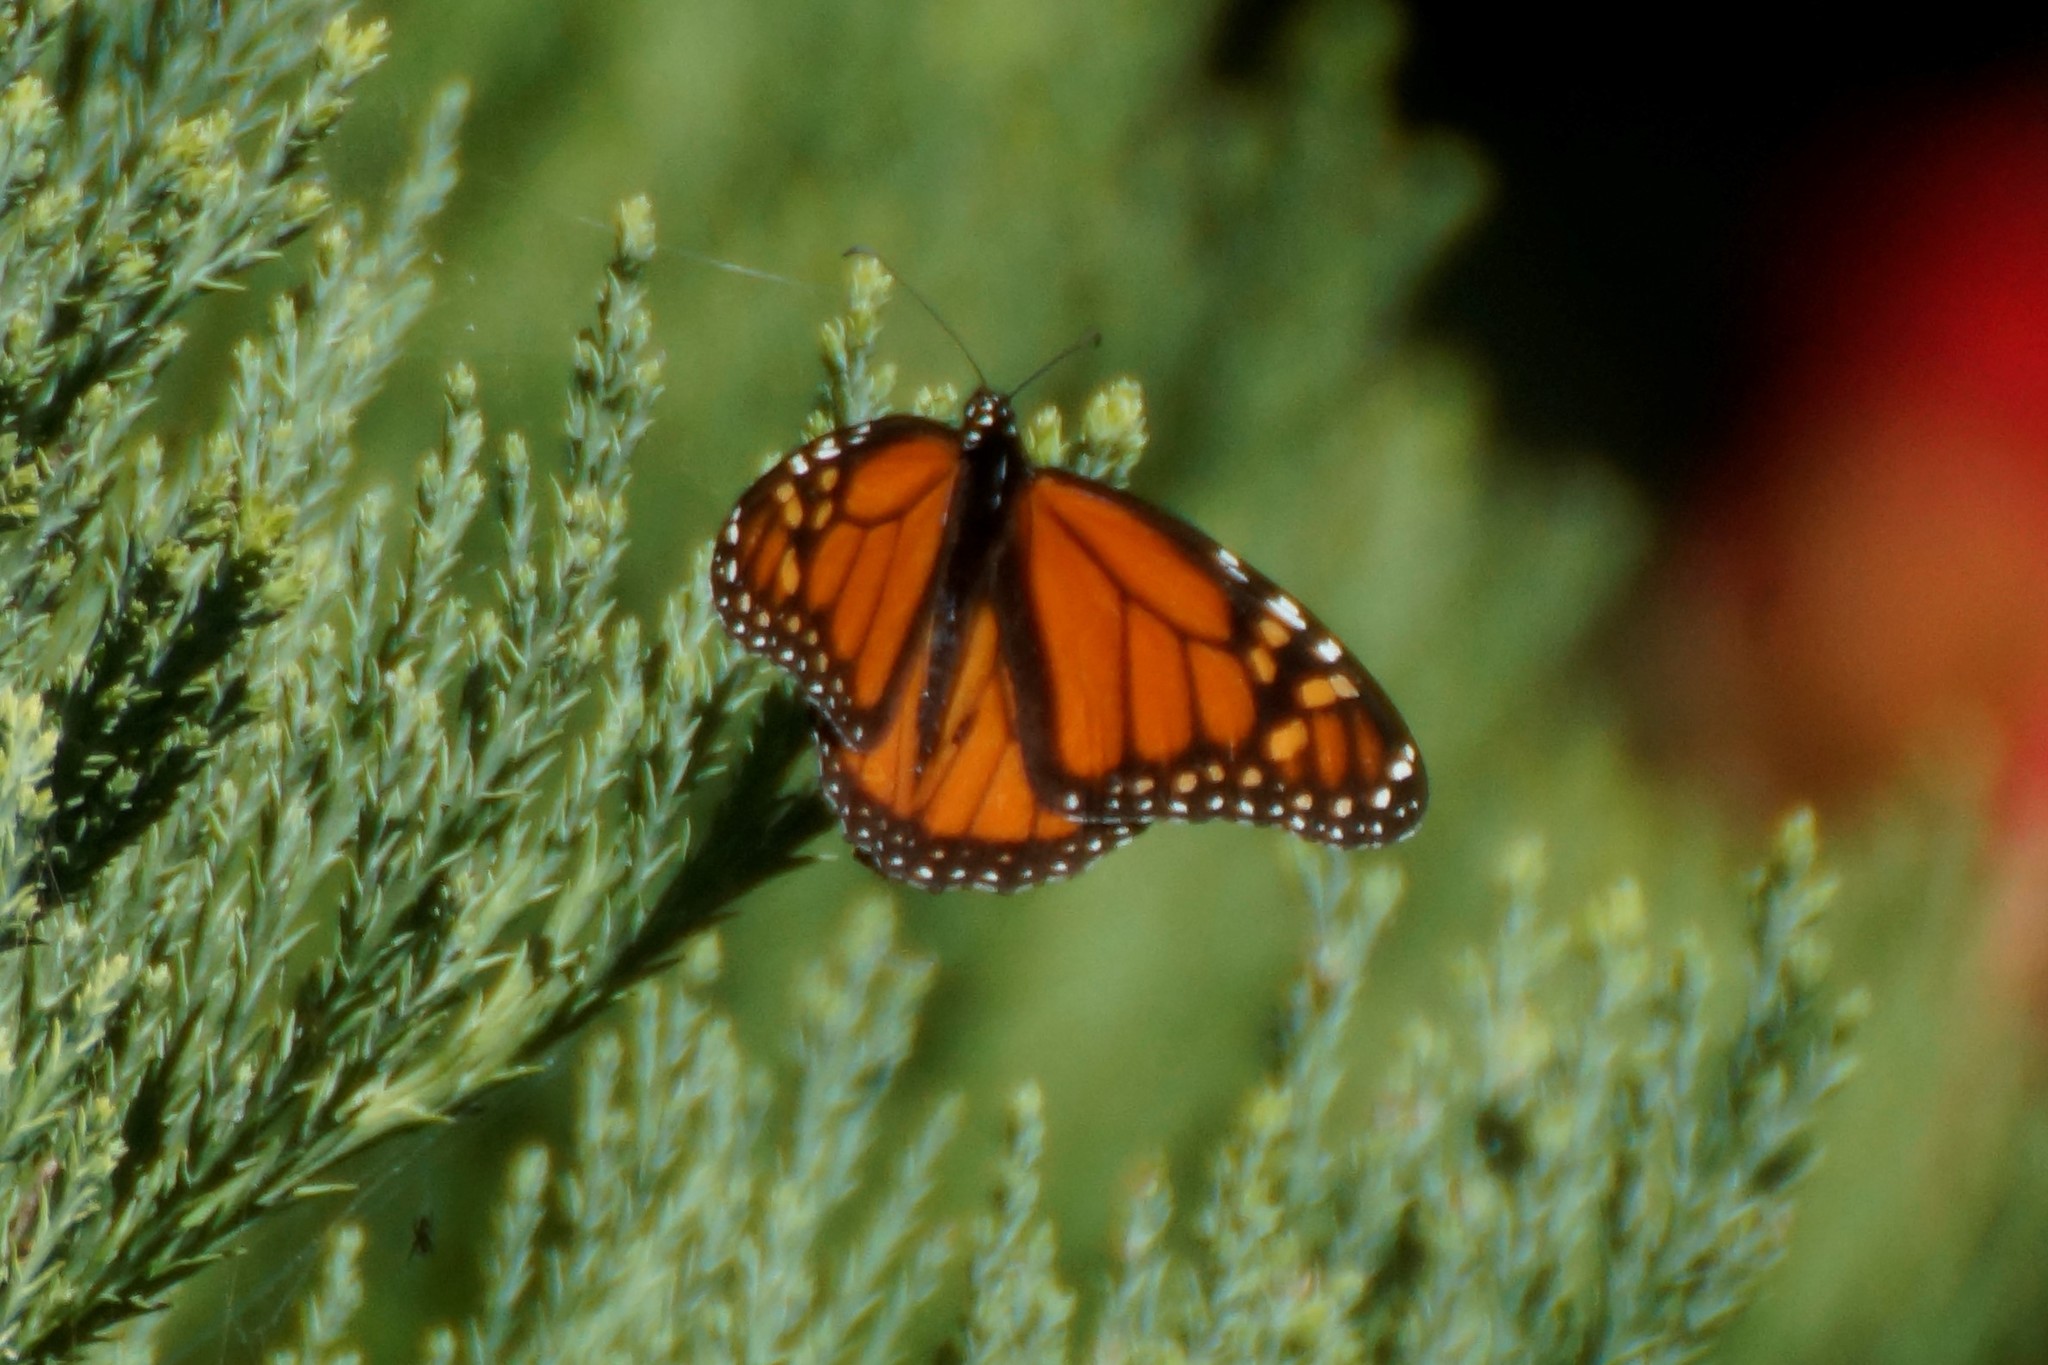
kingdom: Animalia
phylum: Arthropoda
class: Insecta
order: Lepidoptera
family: Nymphalidae
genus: Danaus
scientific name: Danaus plexippus
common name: Monarch
